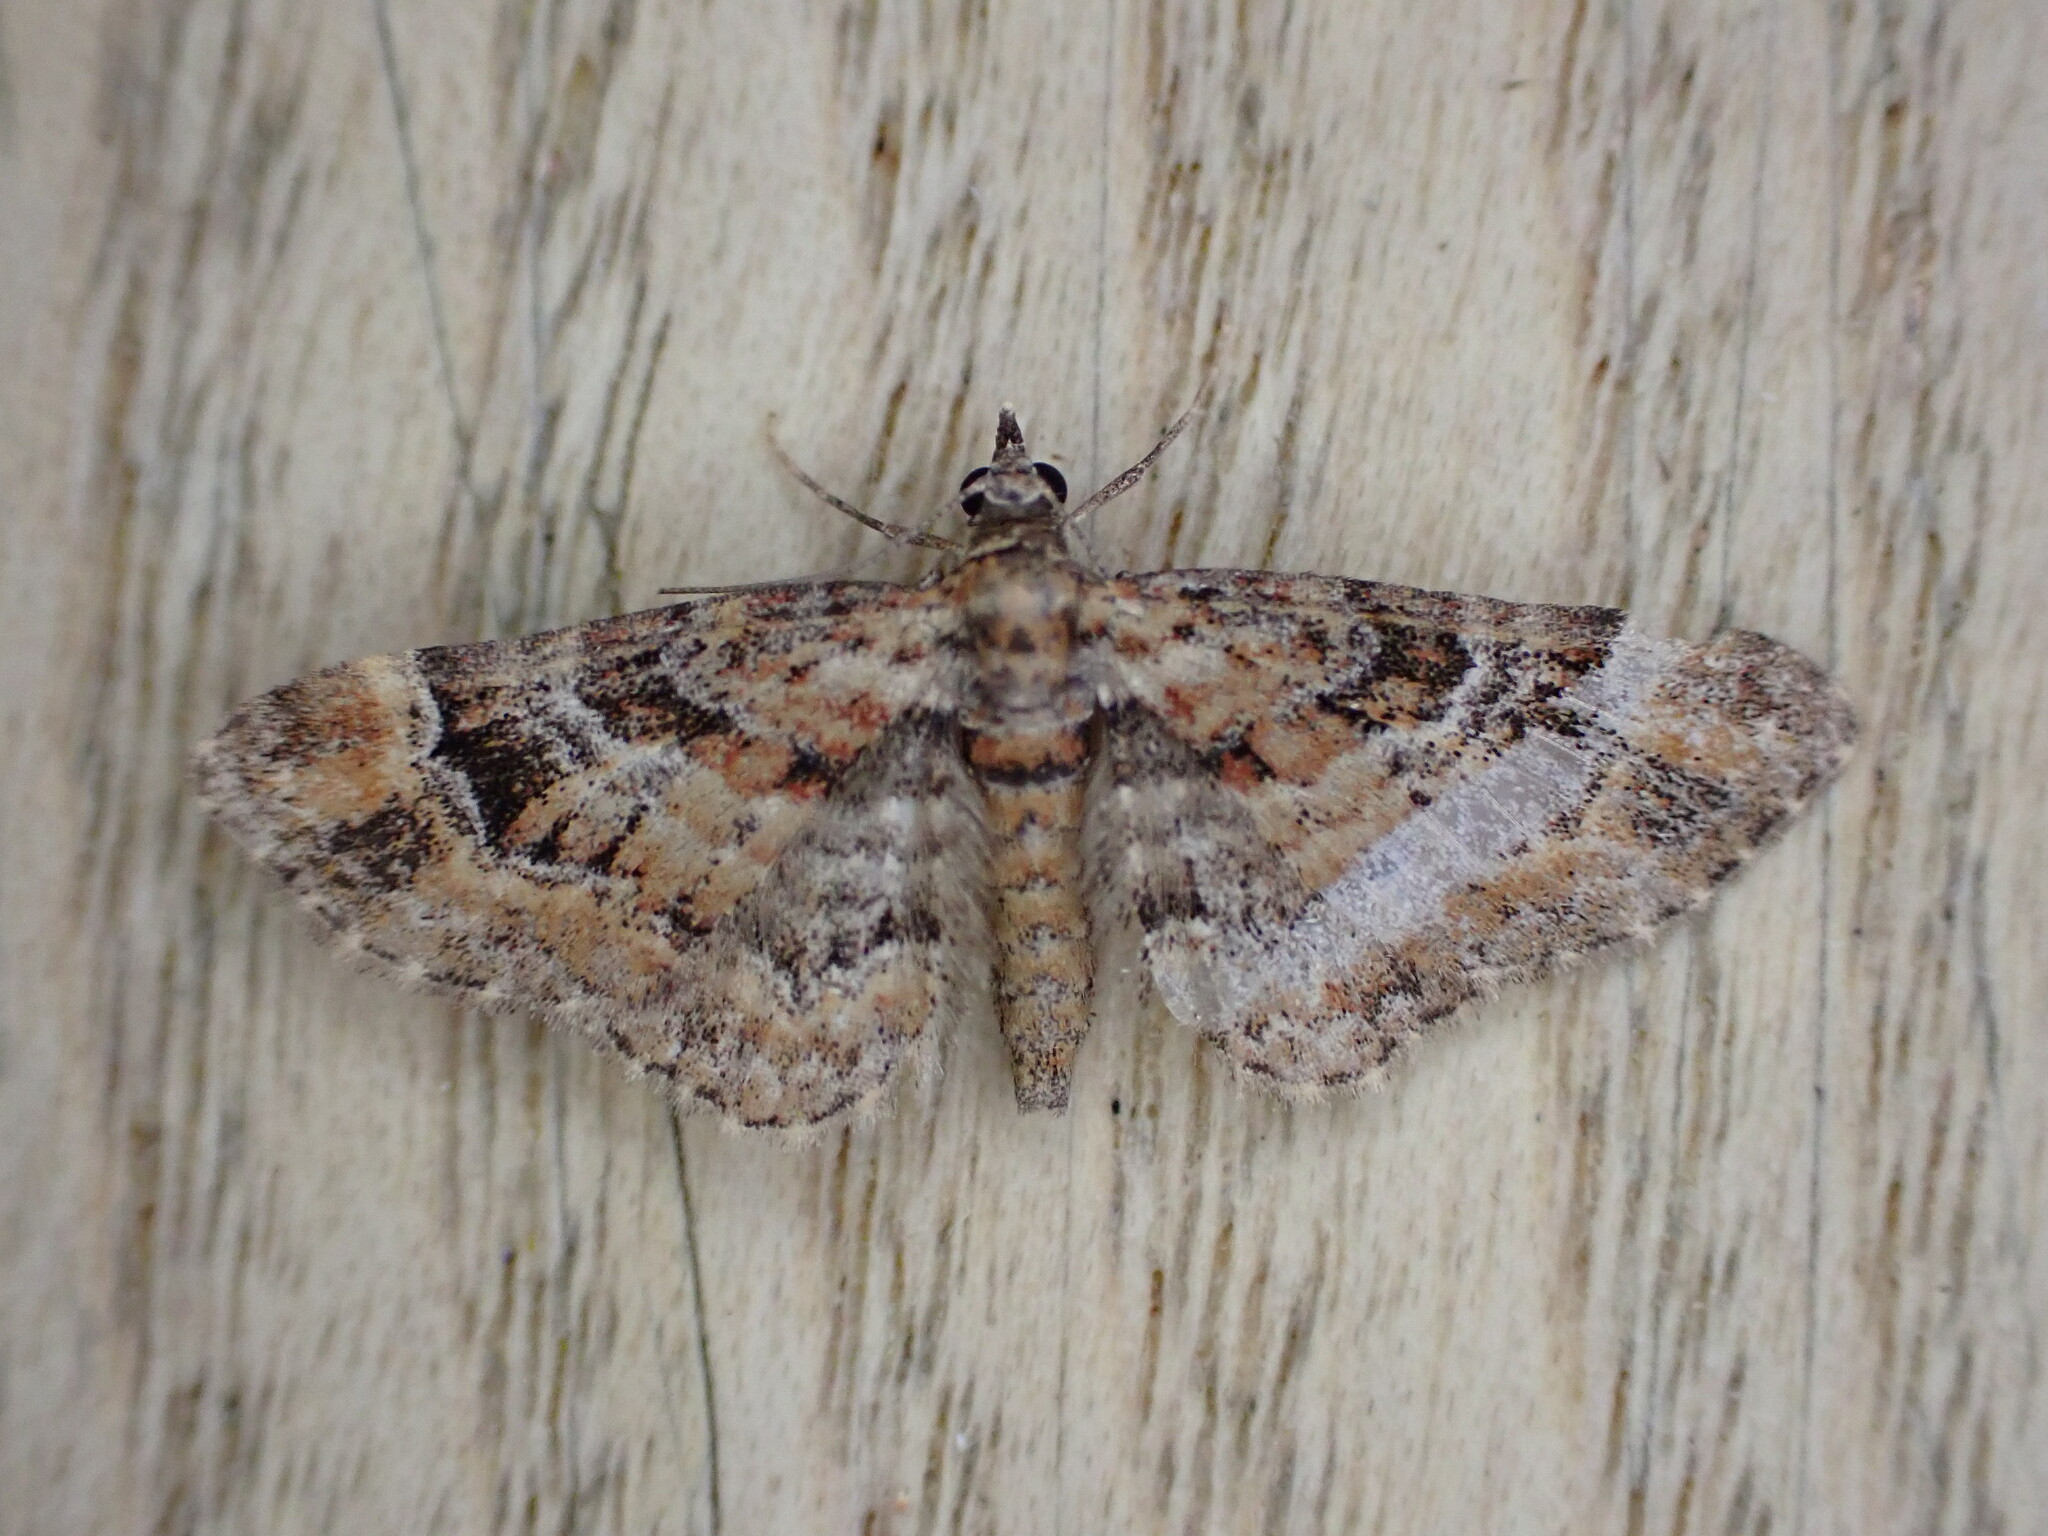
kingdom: Animalia
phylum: Arthropoda
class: Insecta
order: Lepidoptera
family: Geometridae
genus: Gymnoscelis
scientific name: Gymnoscelis rufifasciata
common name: Double-striped pug
